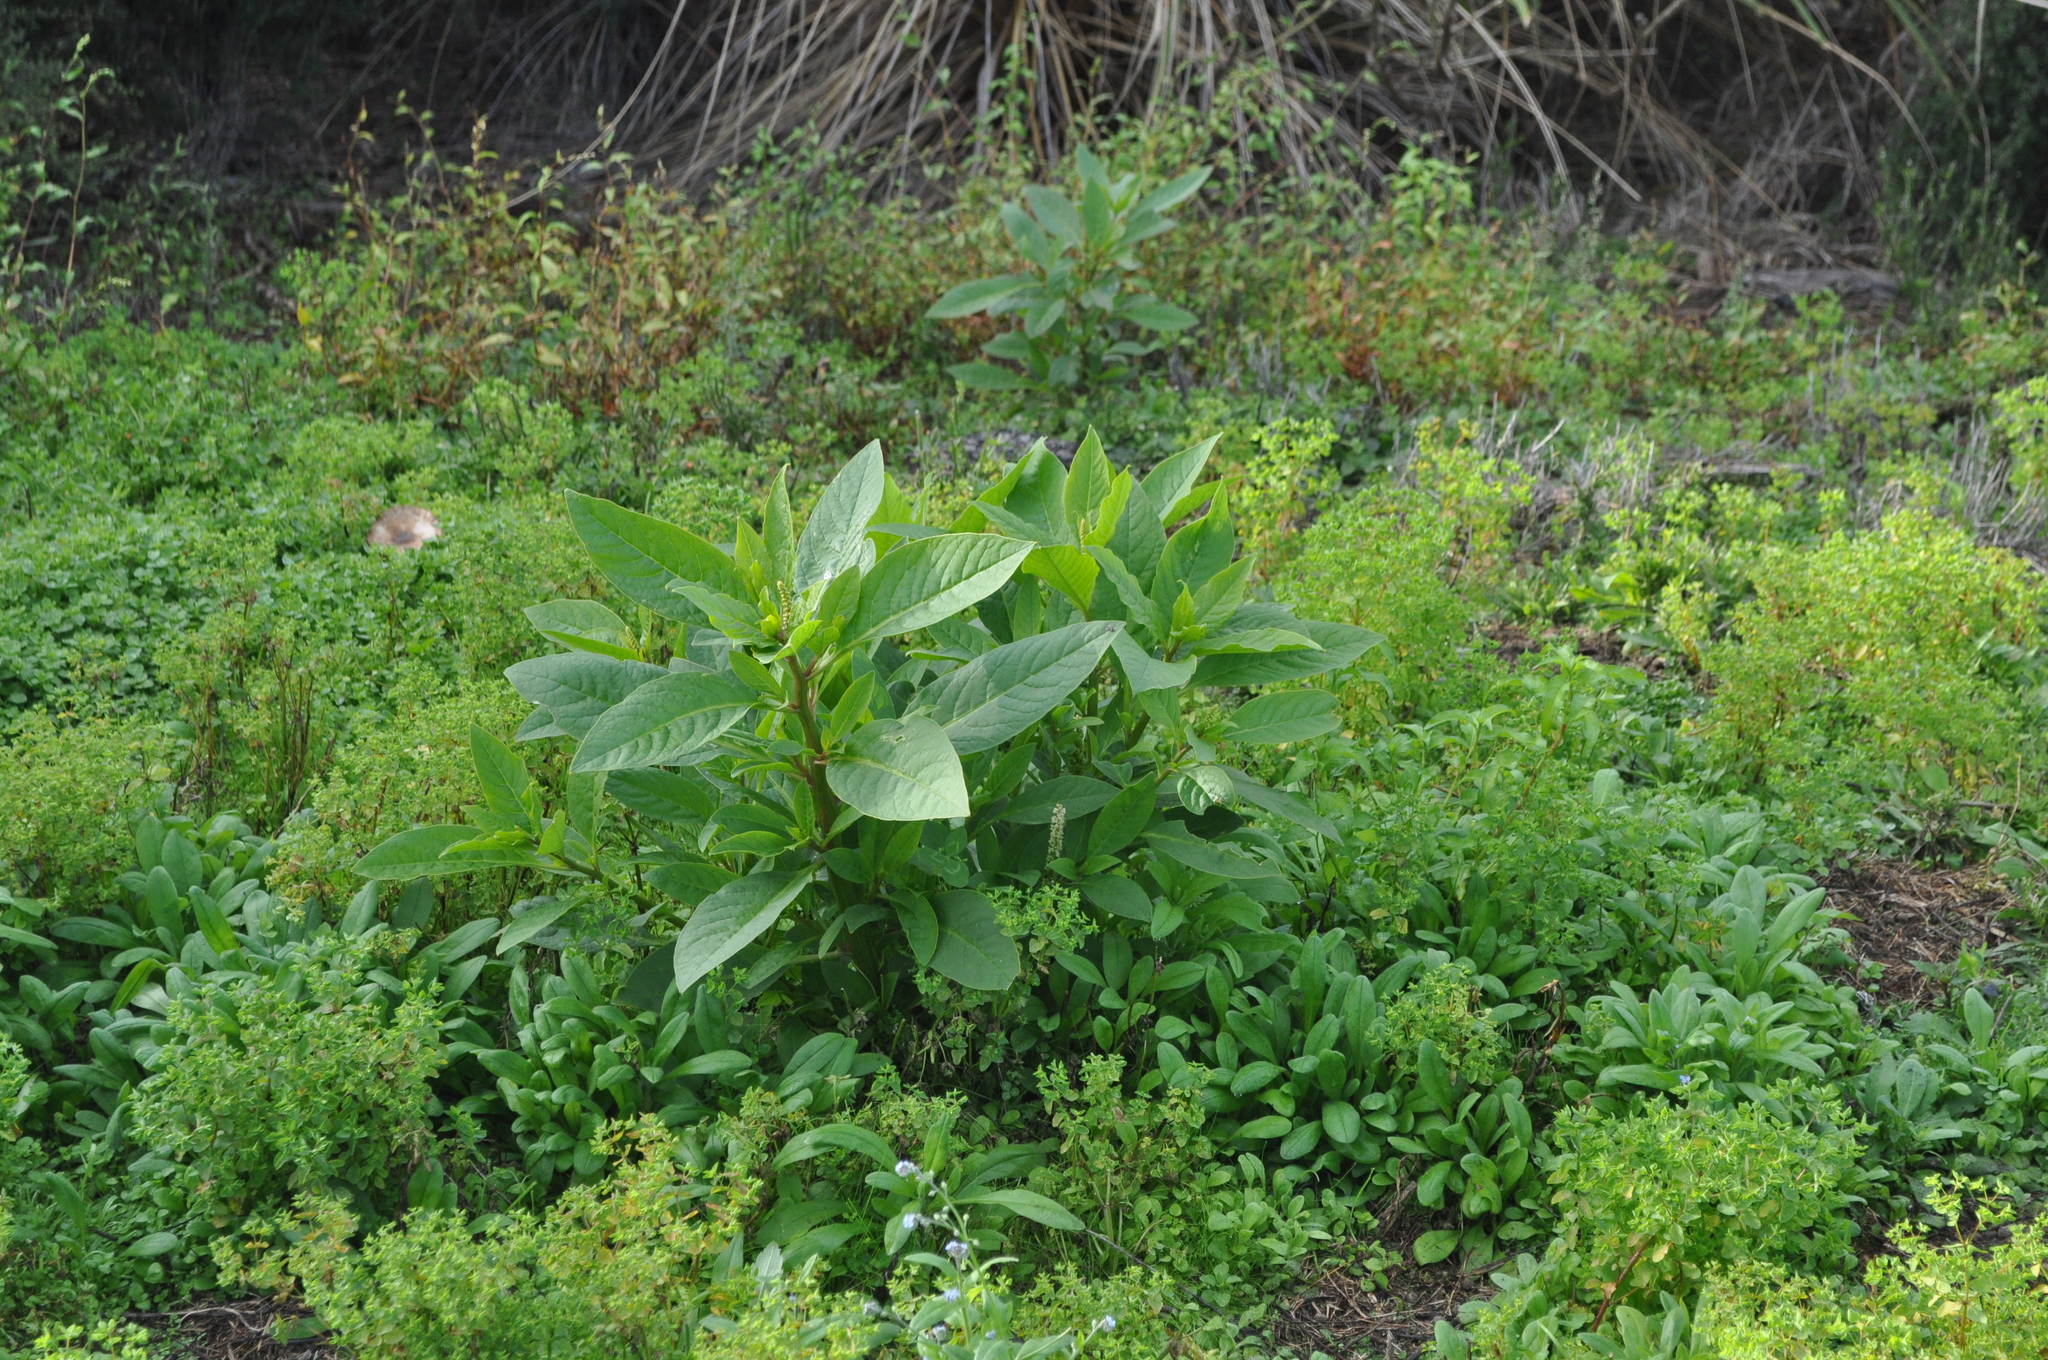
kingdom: Plantae
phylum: Tracheophyta
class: Magnoliopsida
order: Caryophyllales
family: Phytolaccaceae
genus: Phytolacca
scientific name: Phytolacca icosandra
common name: Button pokeweed
